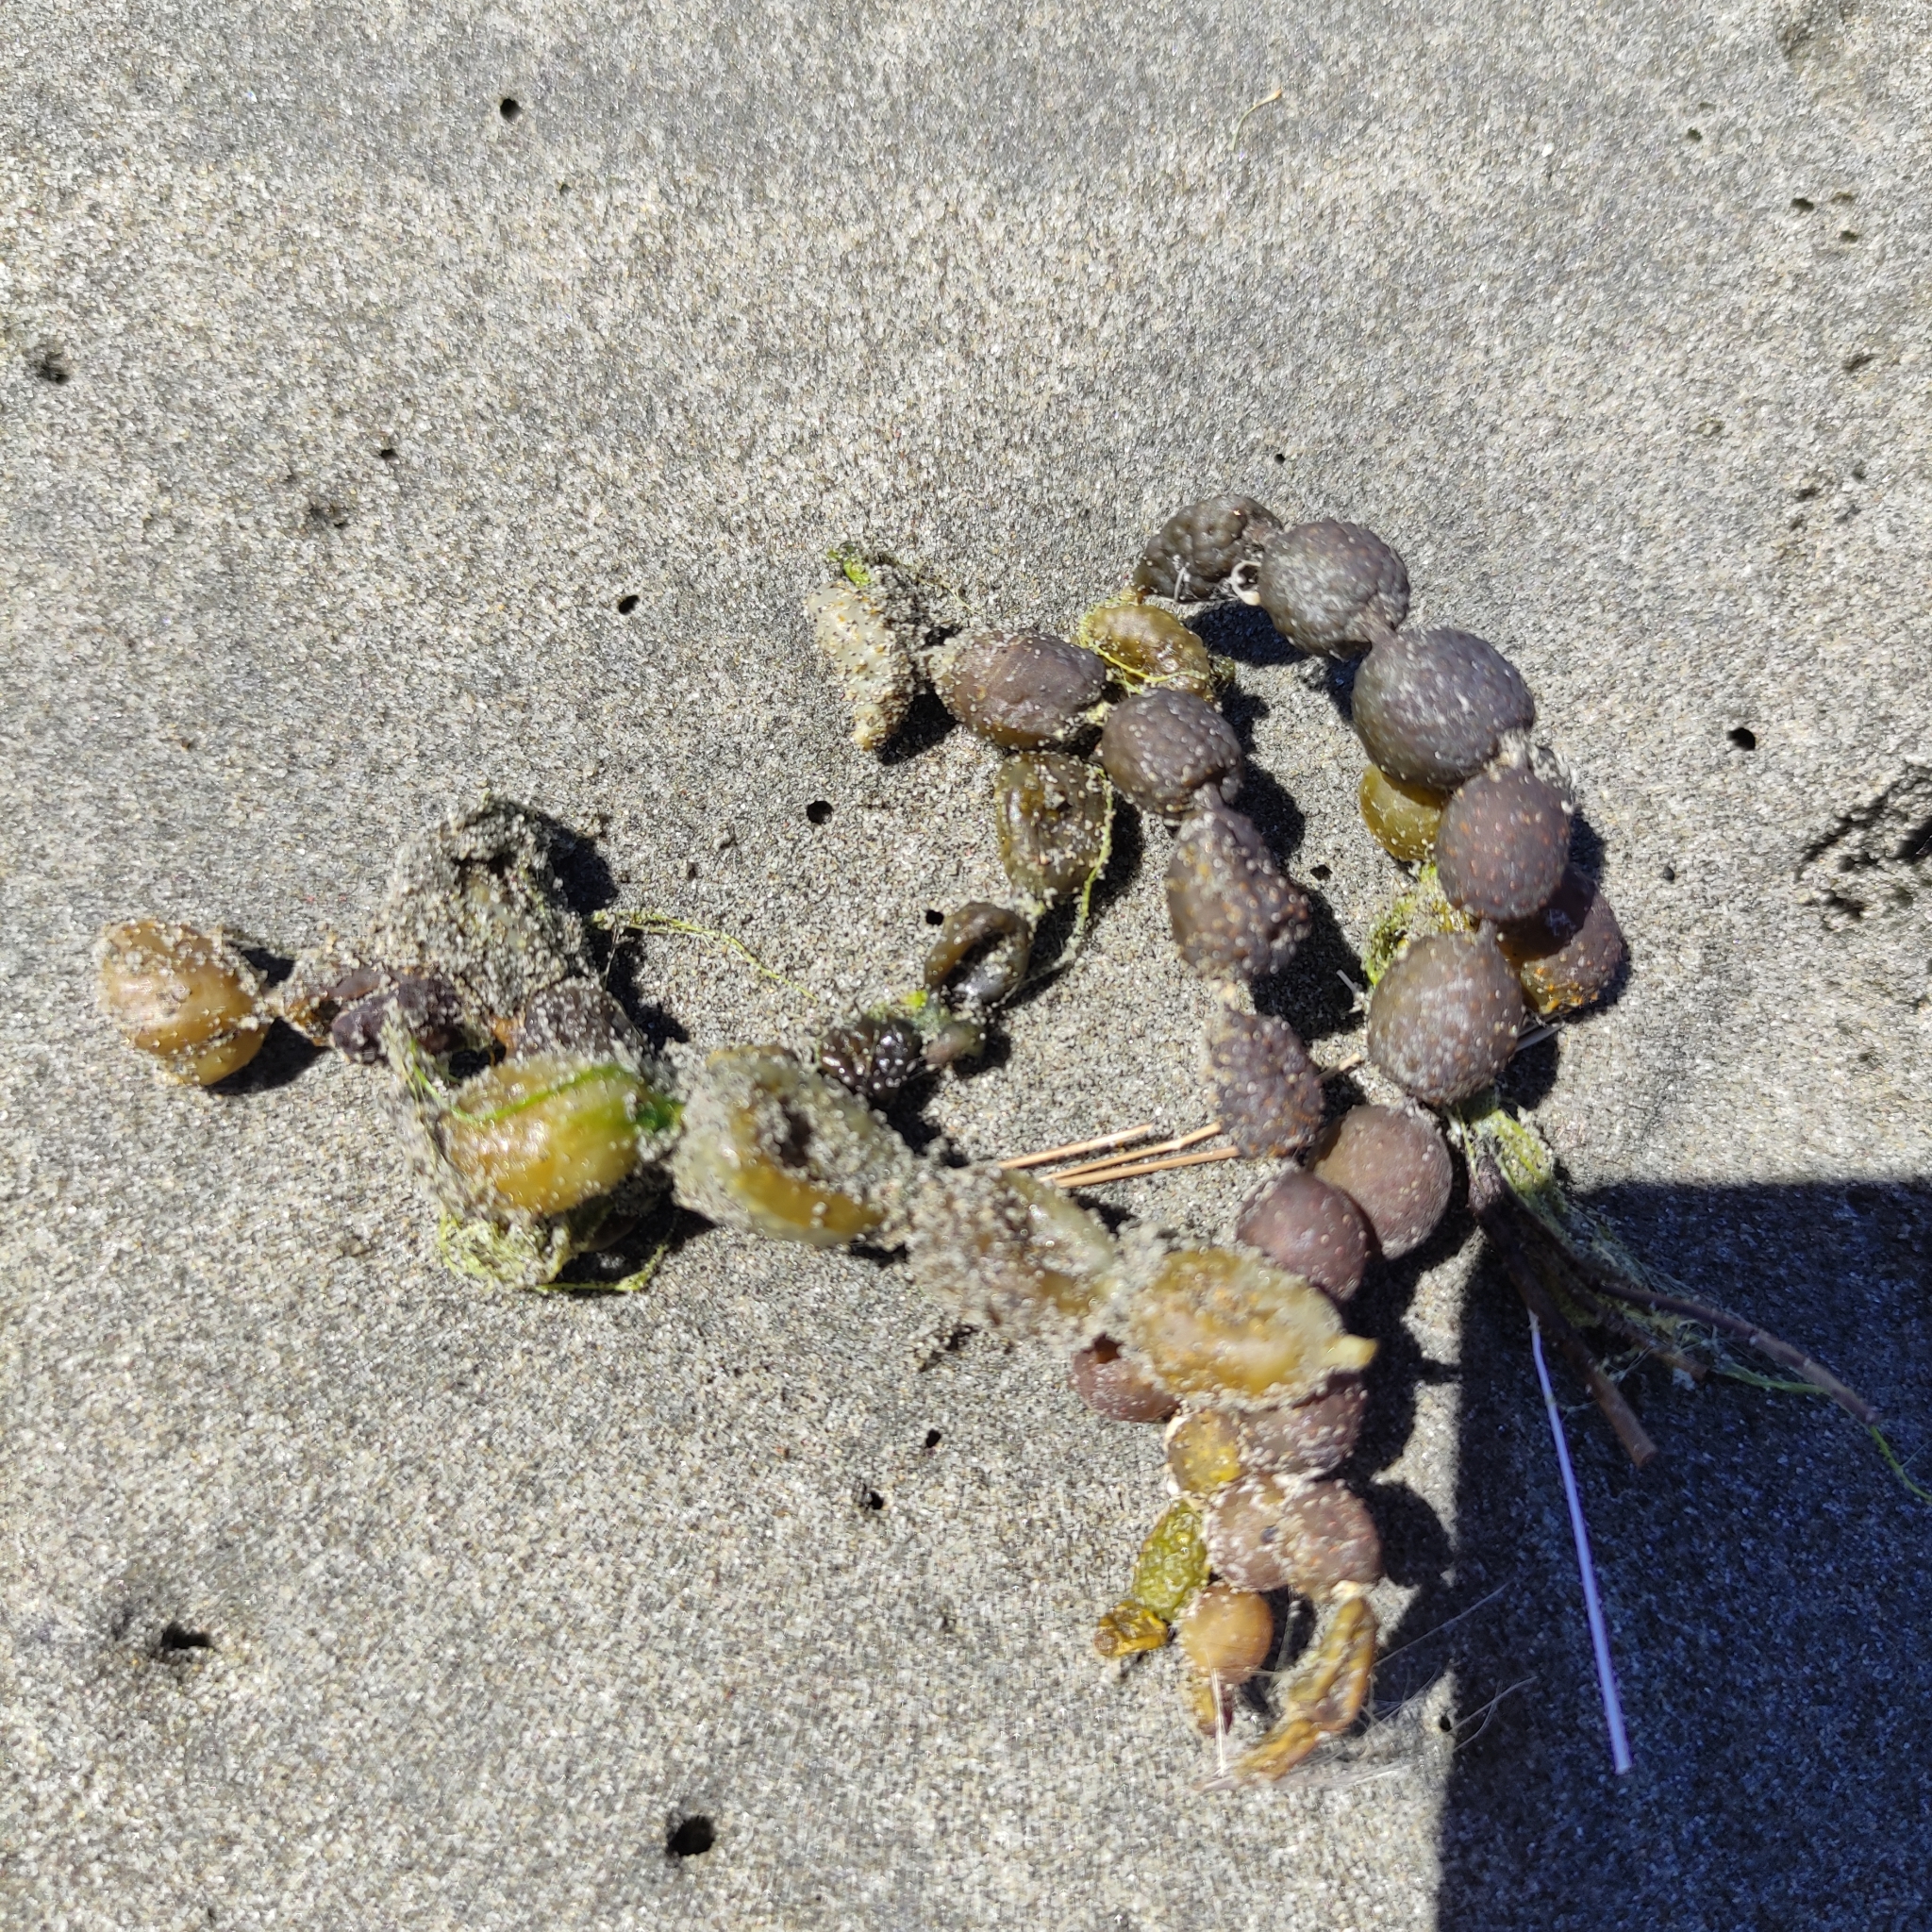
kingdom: Chromista
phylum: Ochrophyta
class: Phaeophyceae
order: Fucales
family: Hormosiraceae
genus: Hormosira
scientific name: Hormosira banksii
